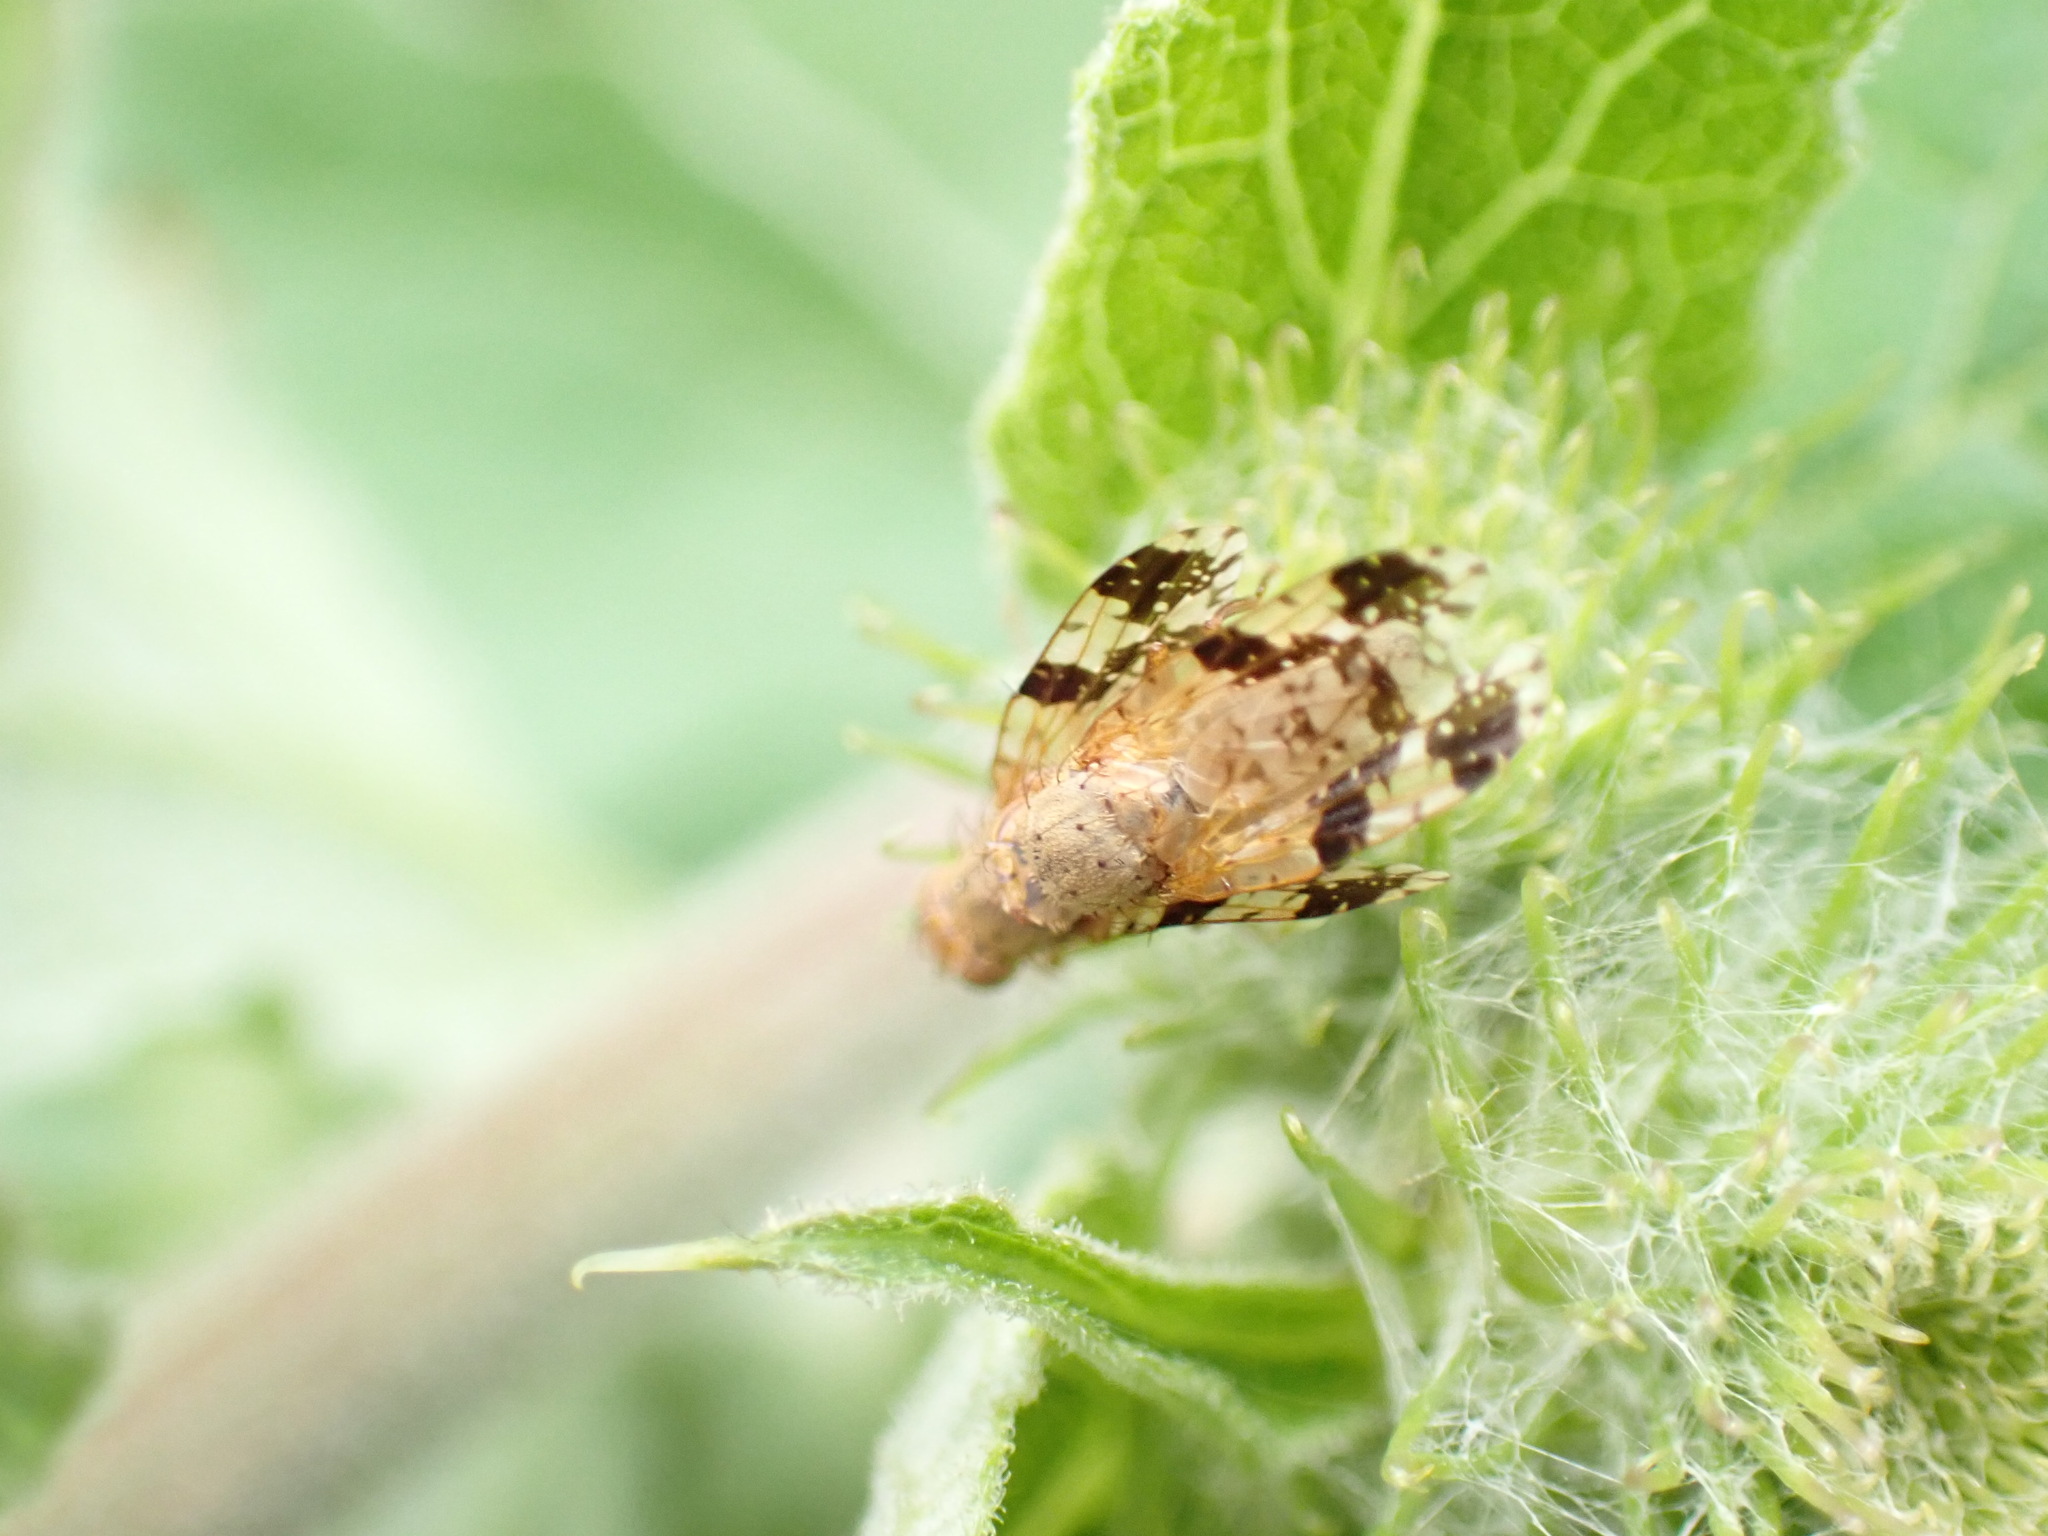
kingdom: Animalia
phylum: Arthropoda
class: Insecta
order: Diptera
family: Tephritidae
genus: Tephritis
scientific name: Tephritis bardanae
